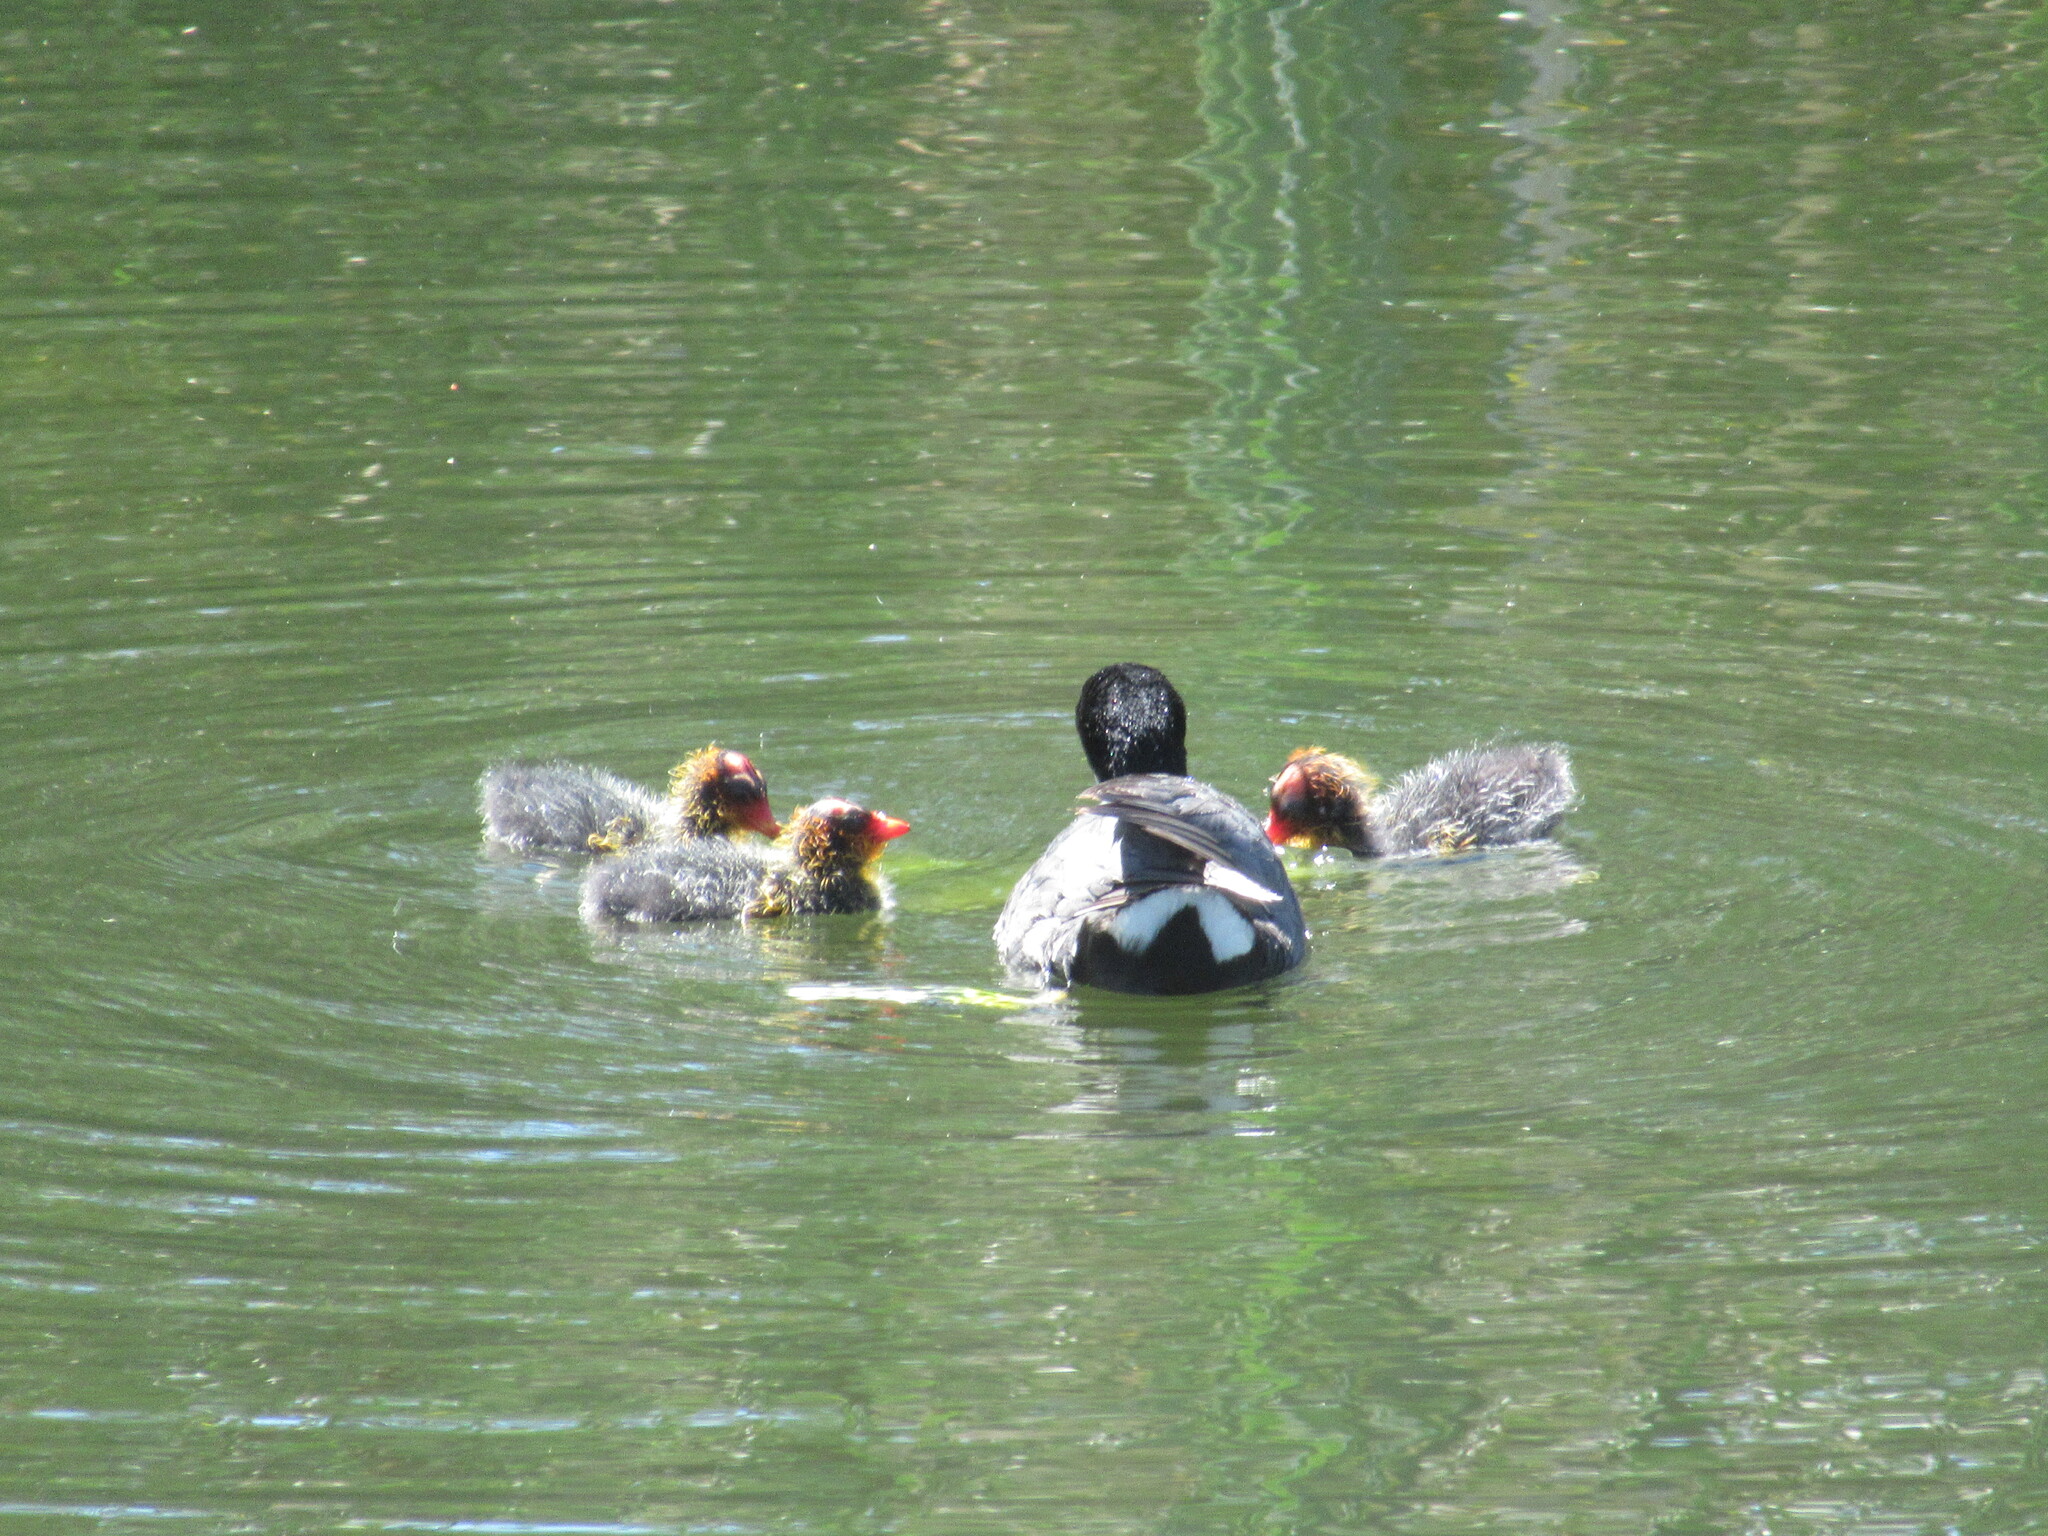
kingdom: Animalia
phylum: Chordata
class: Aves
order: Gruiformes
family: Rallidae
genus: Fulica
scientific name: Fulica americana
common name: American coot
